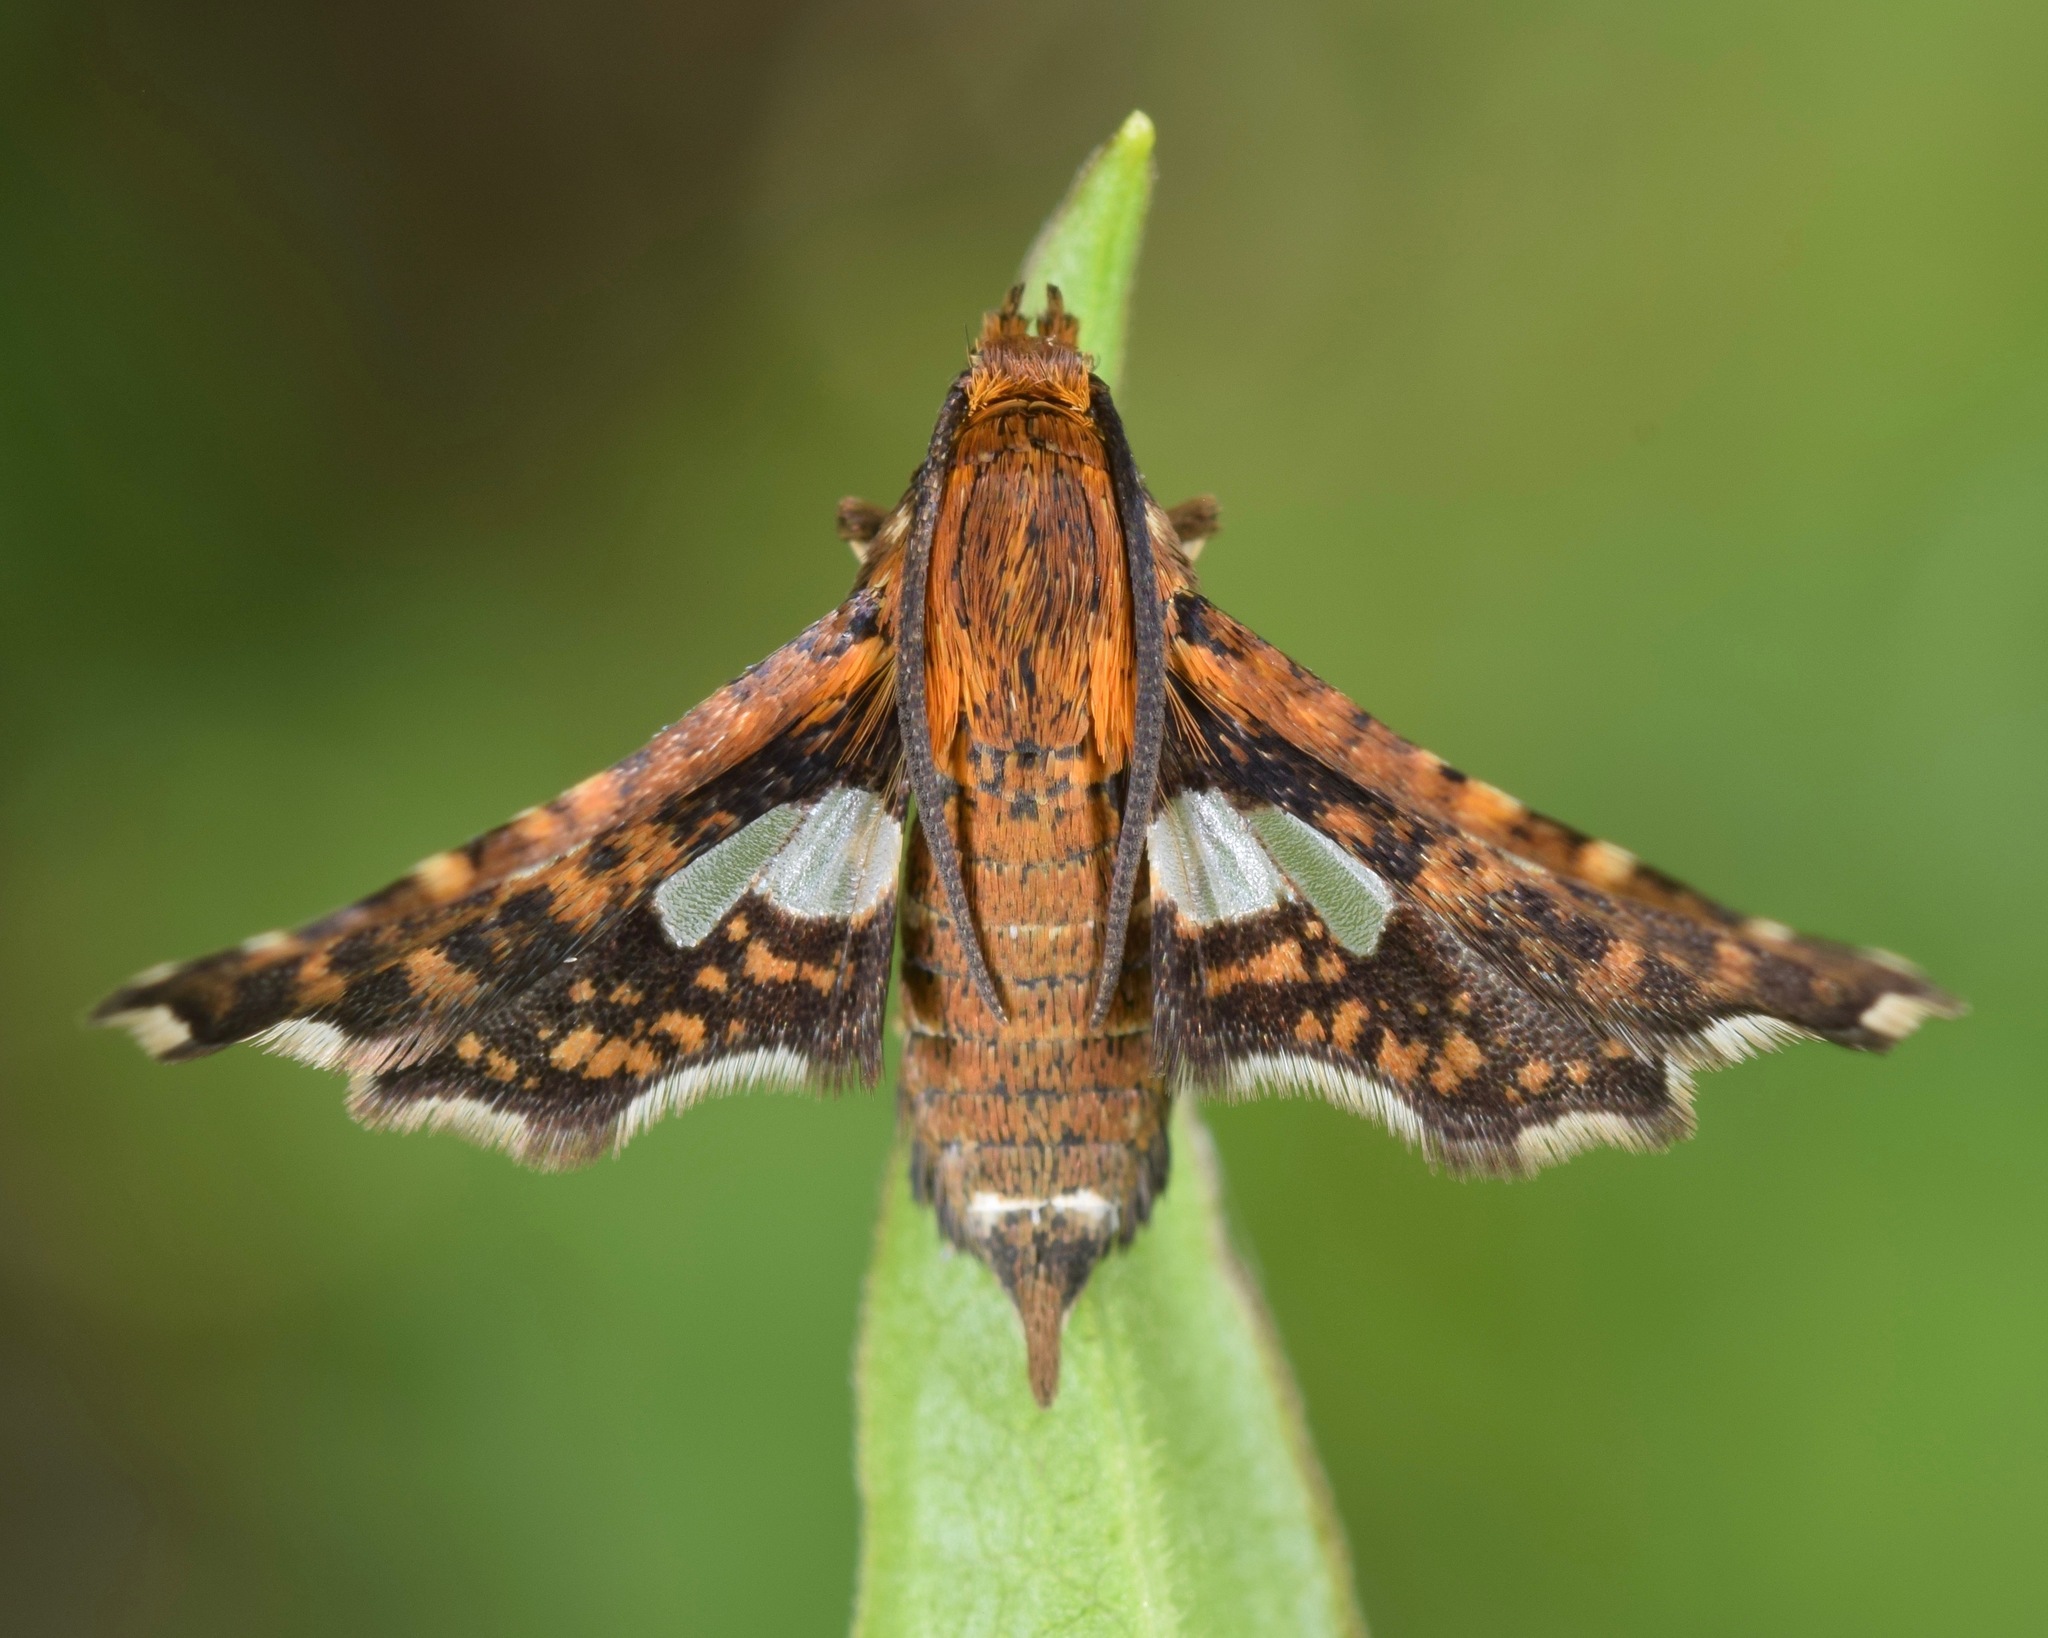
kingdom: Animalia
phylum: Arthropoda
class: Insecta
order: Lepidoptera
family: Thyrididae
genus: Thyris
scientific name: Thyris maculata
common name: Spotted thyris moth
